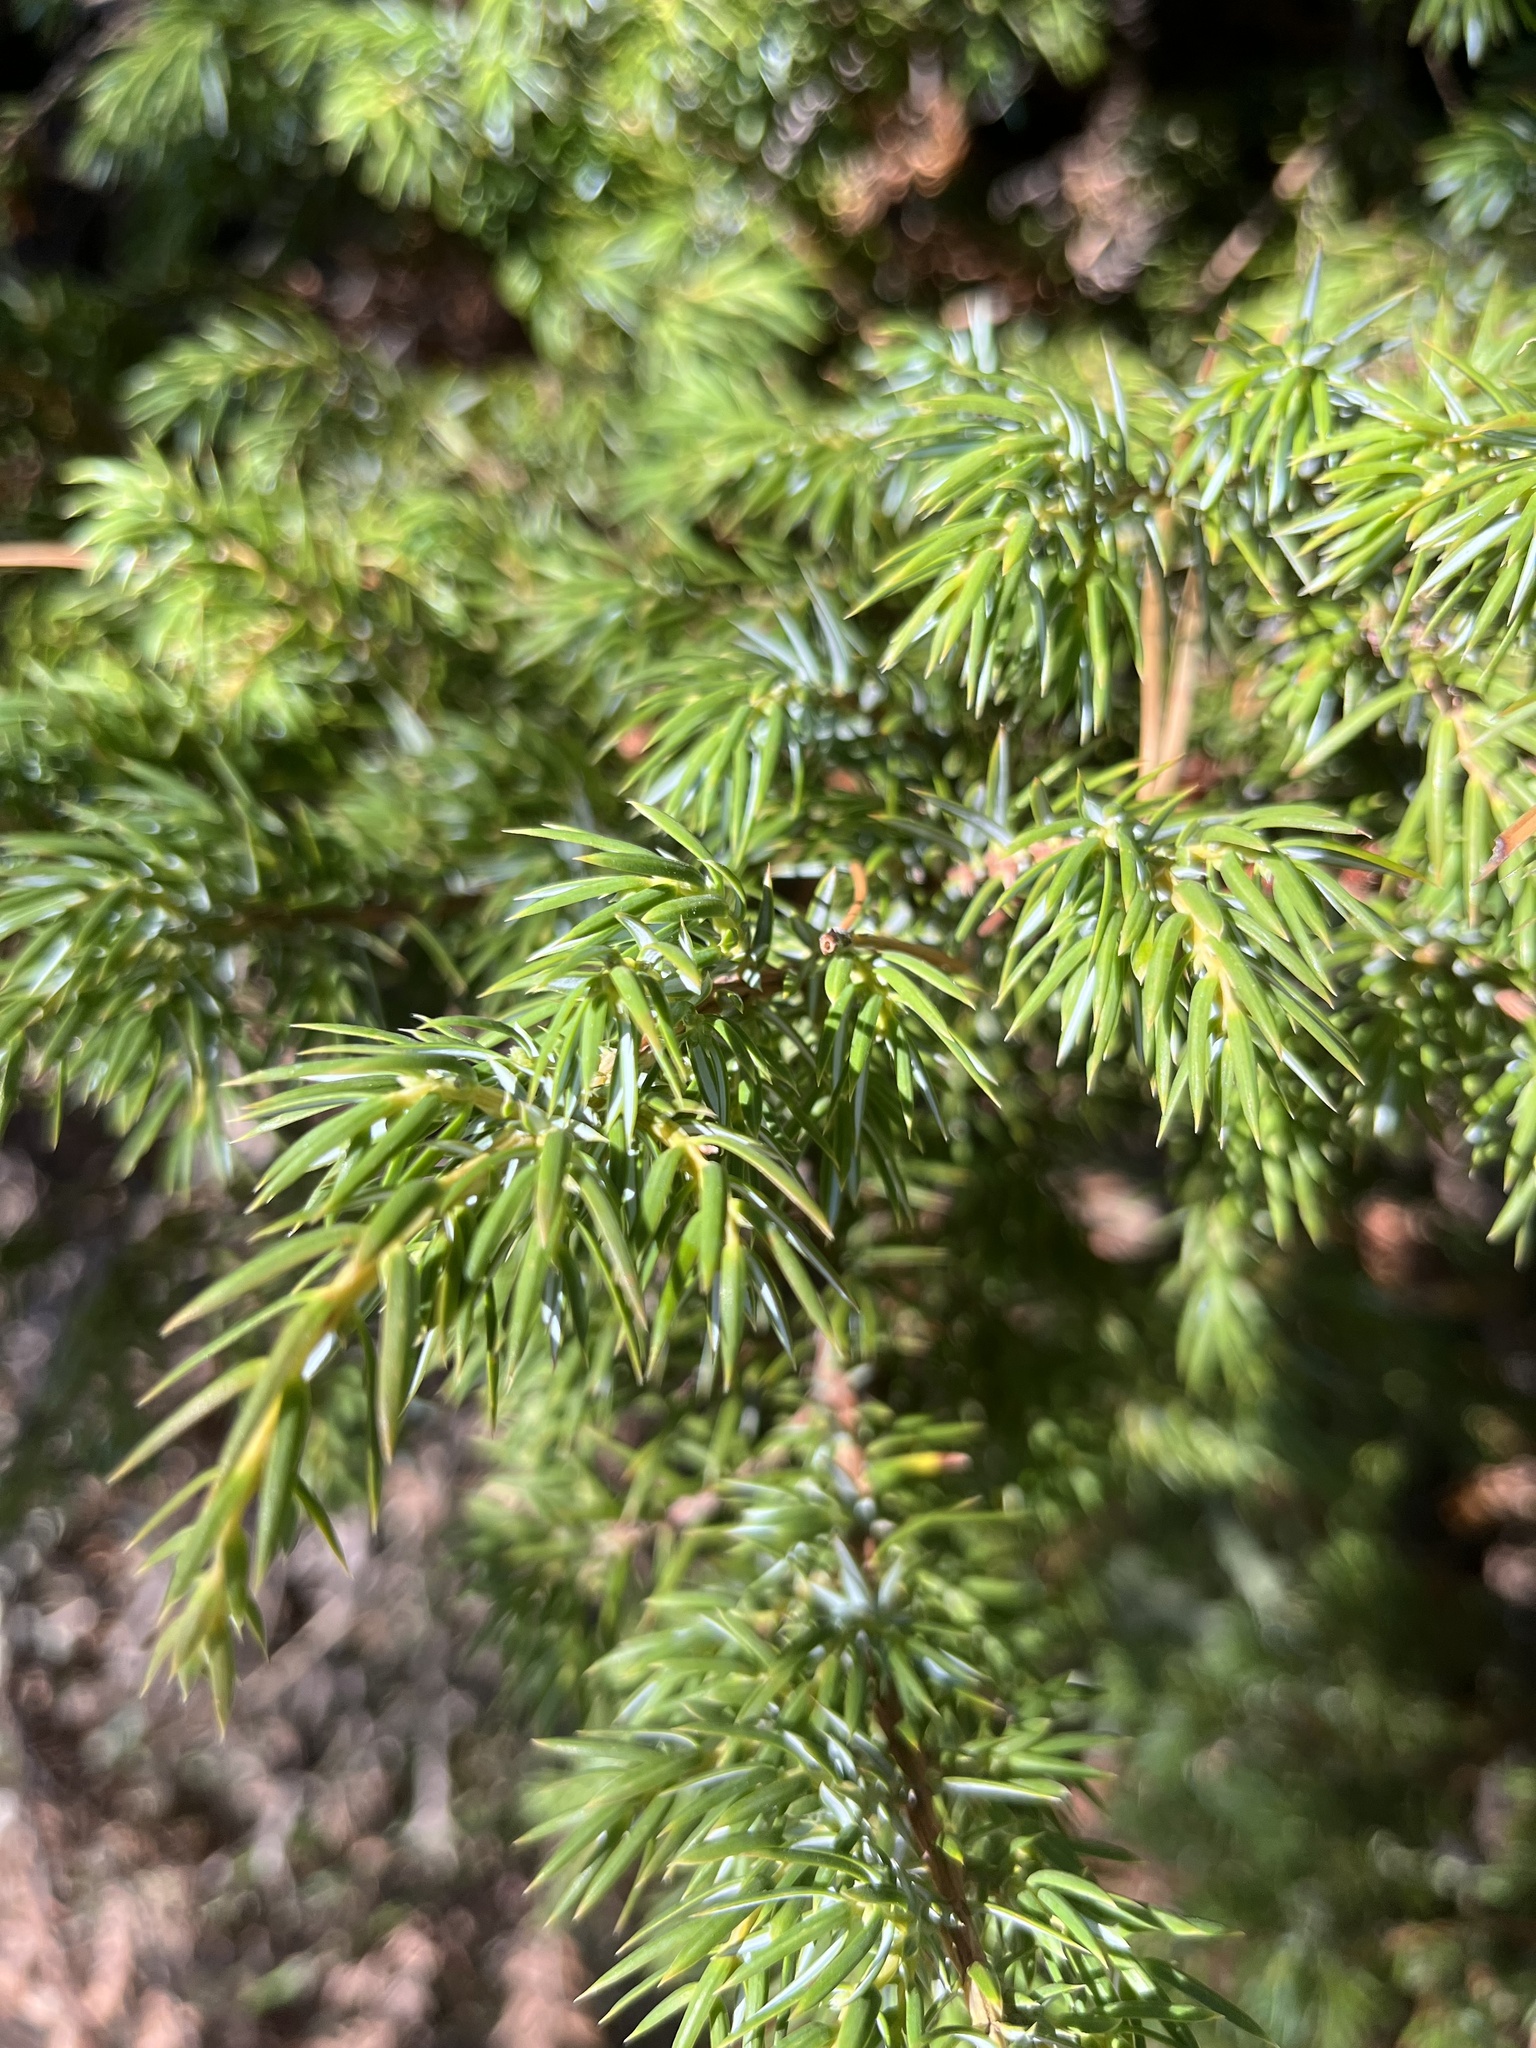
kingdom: Plantae
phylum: Tracheophyta
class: Pinopsida
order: Pinales
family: Cupressaceae
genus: Juniperus
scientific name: Juniperus communis
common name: Common juniper
